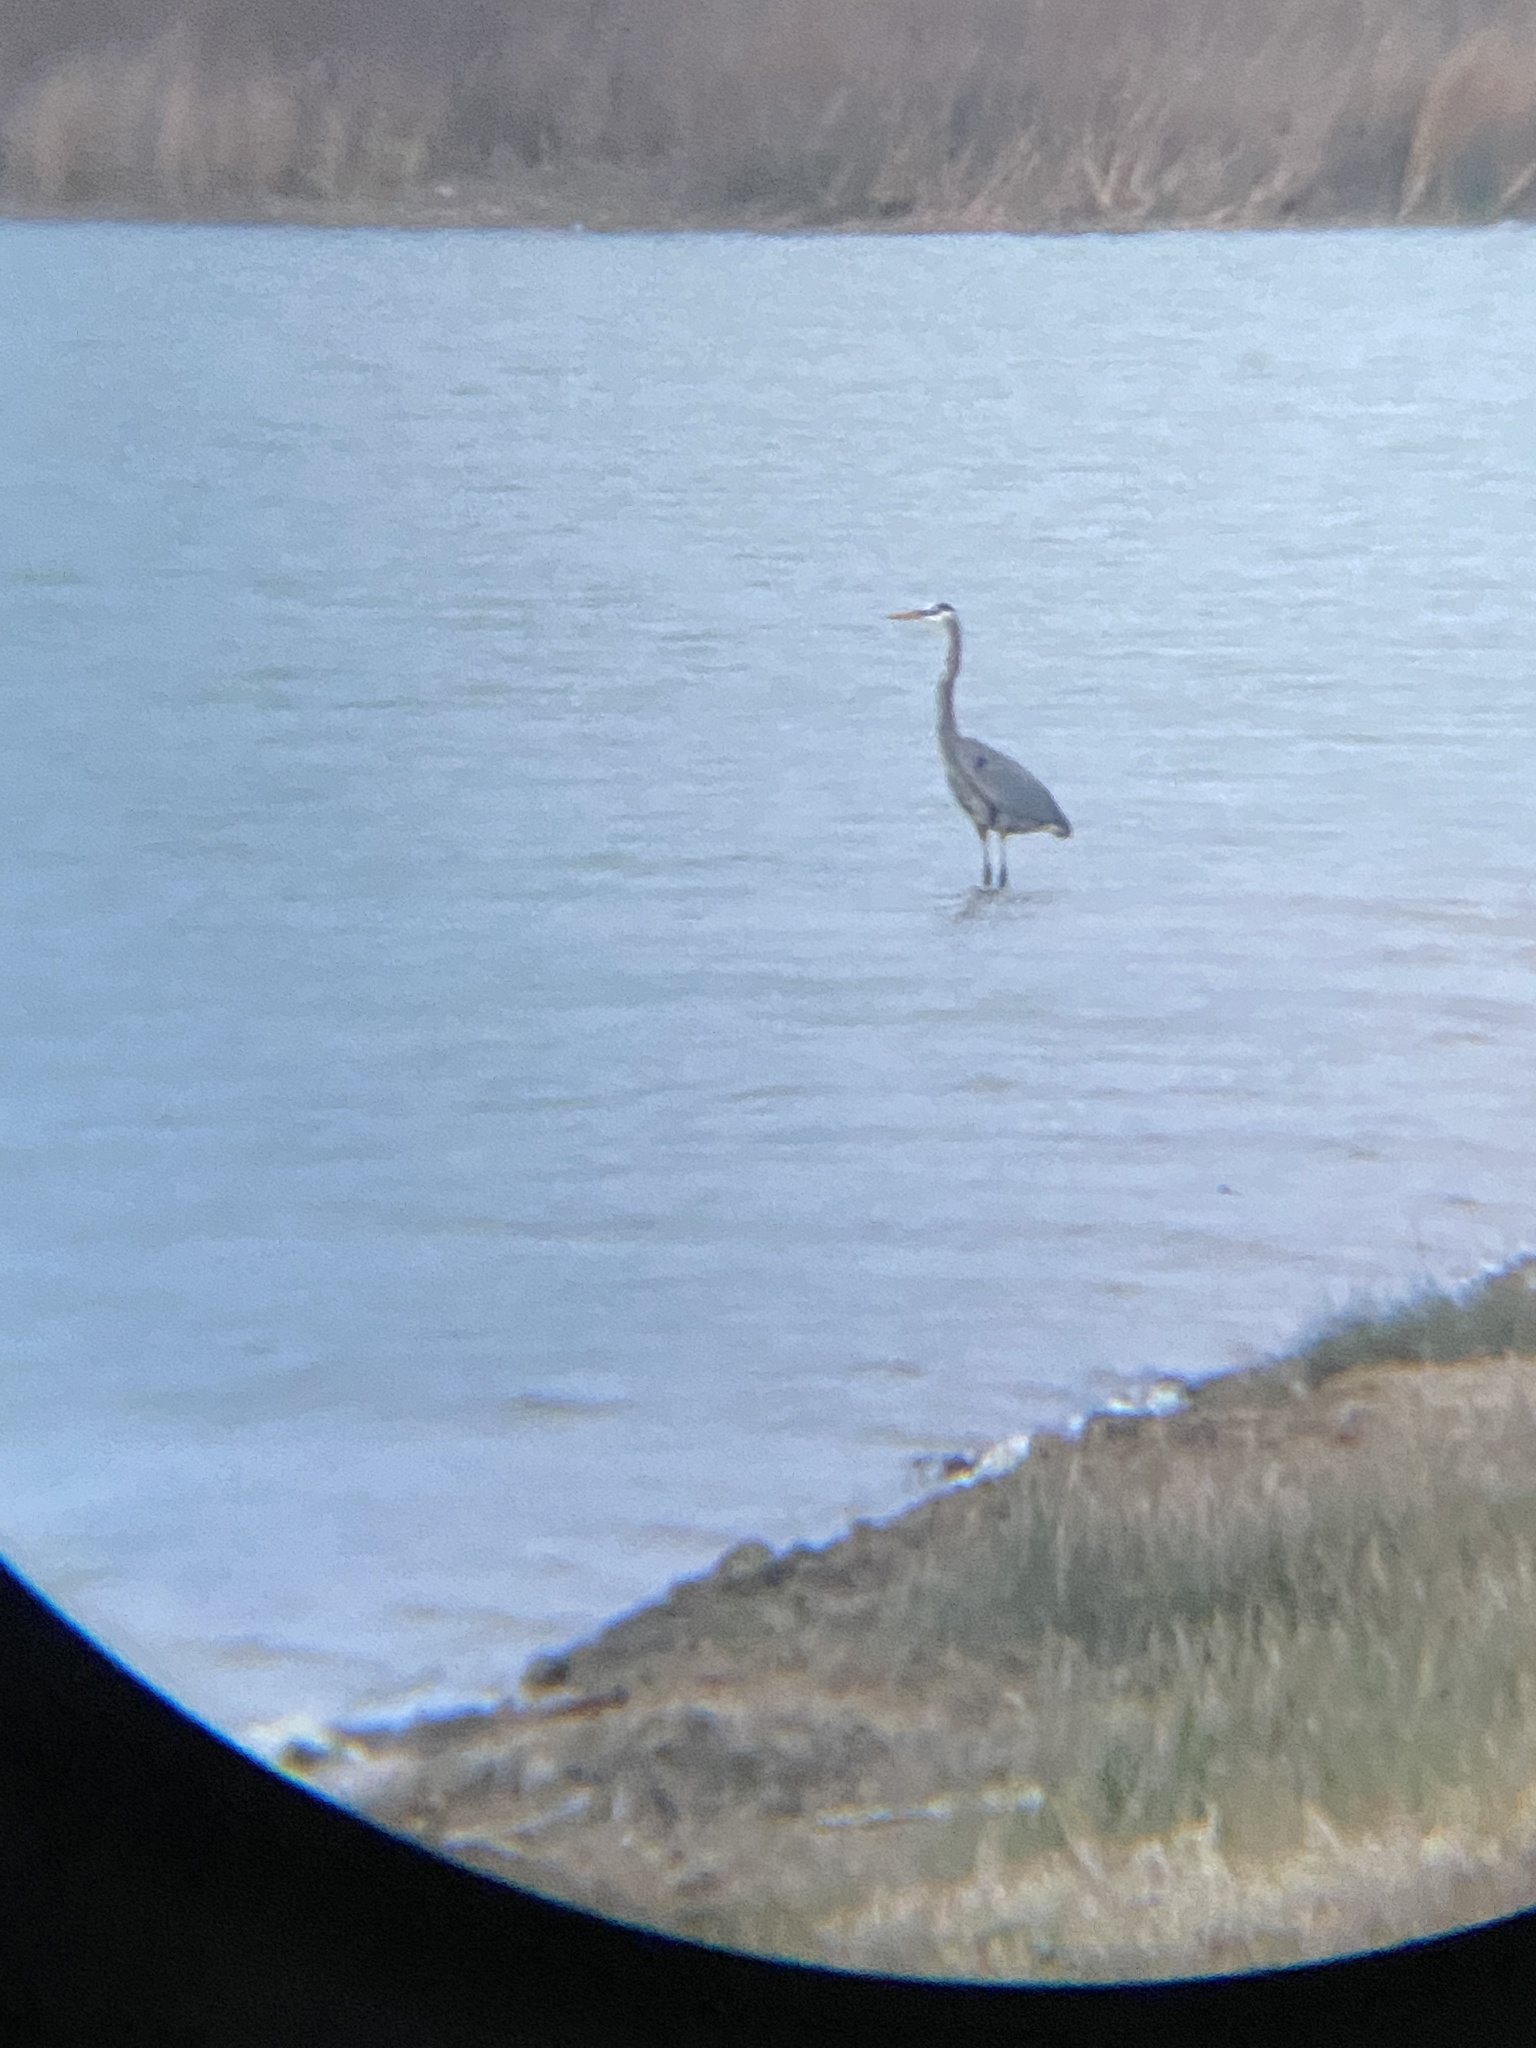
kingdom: Animalia
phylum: Chordata
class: Aves
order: Pelecaniformes
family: Ardeidae
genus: Ardea
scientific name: Ardea herodias
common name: Great blue heron
